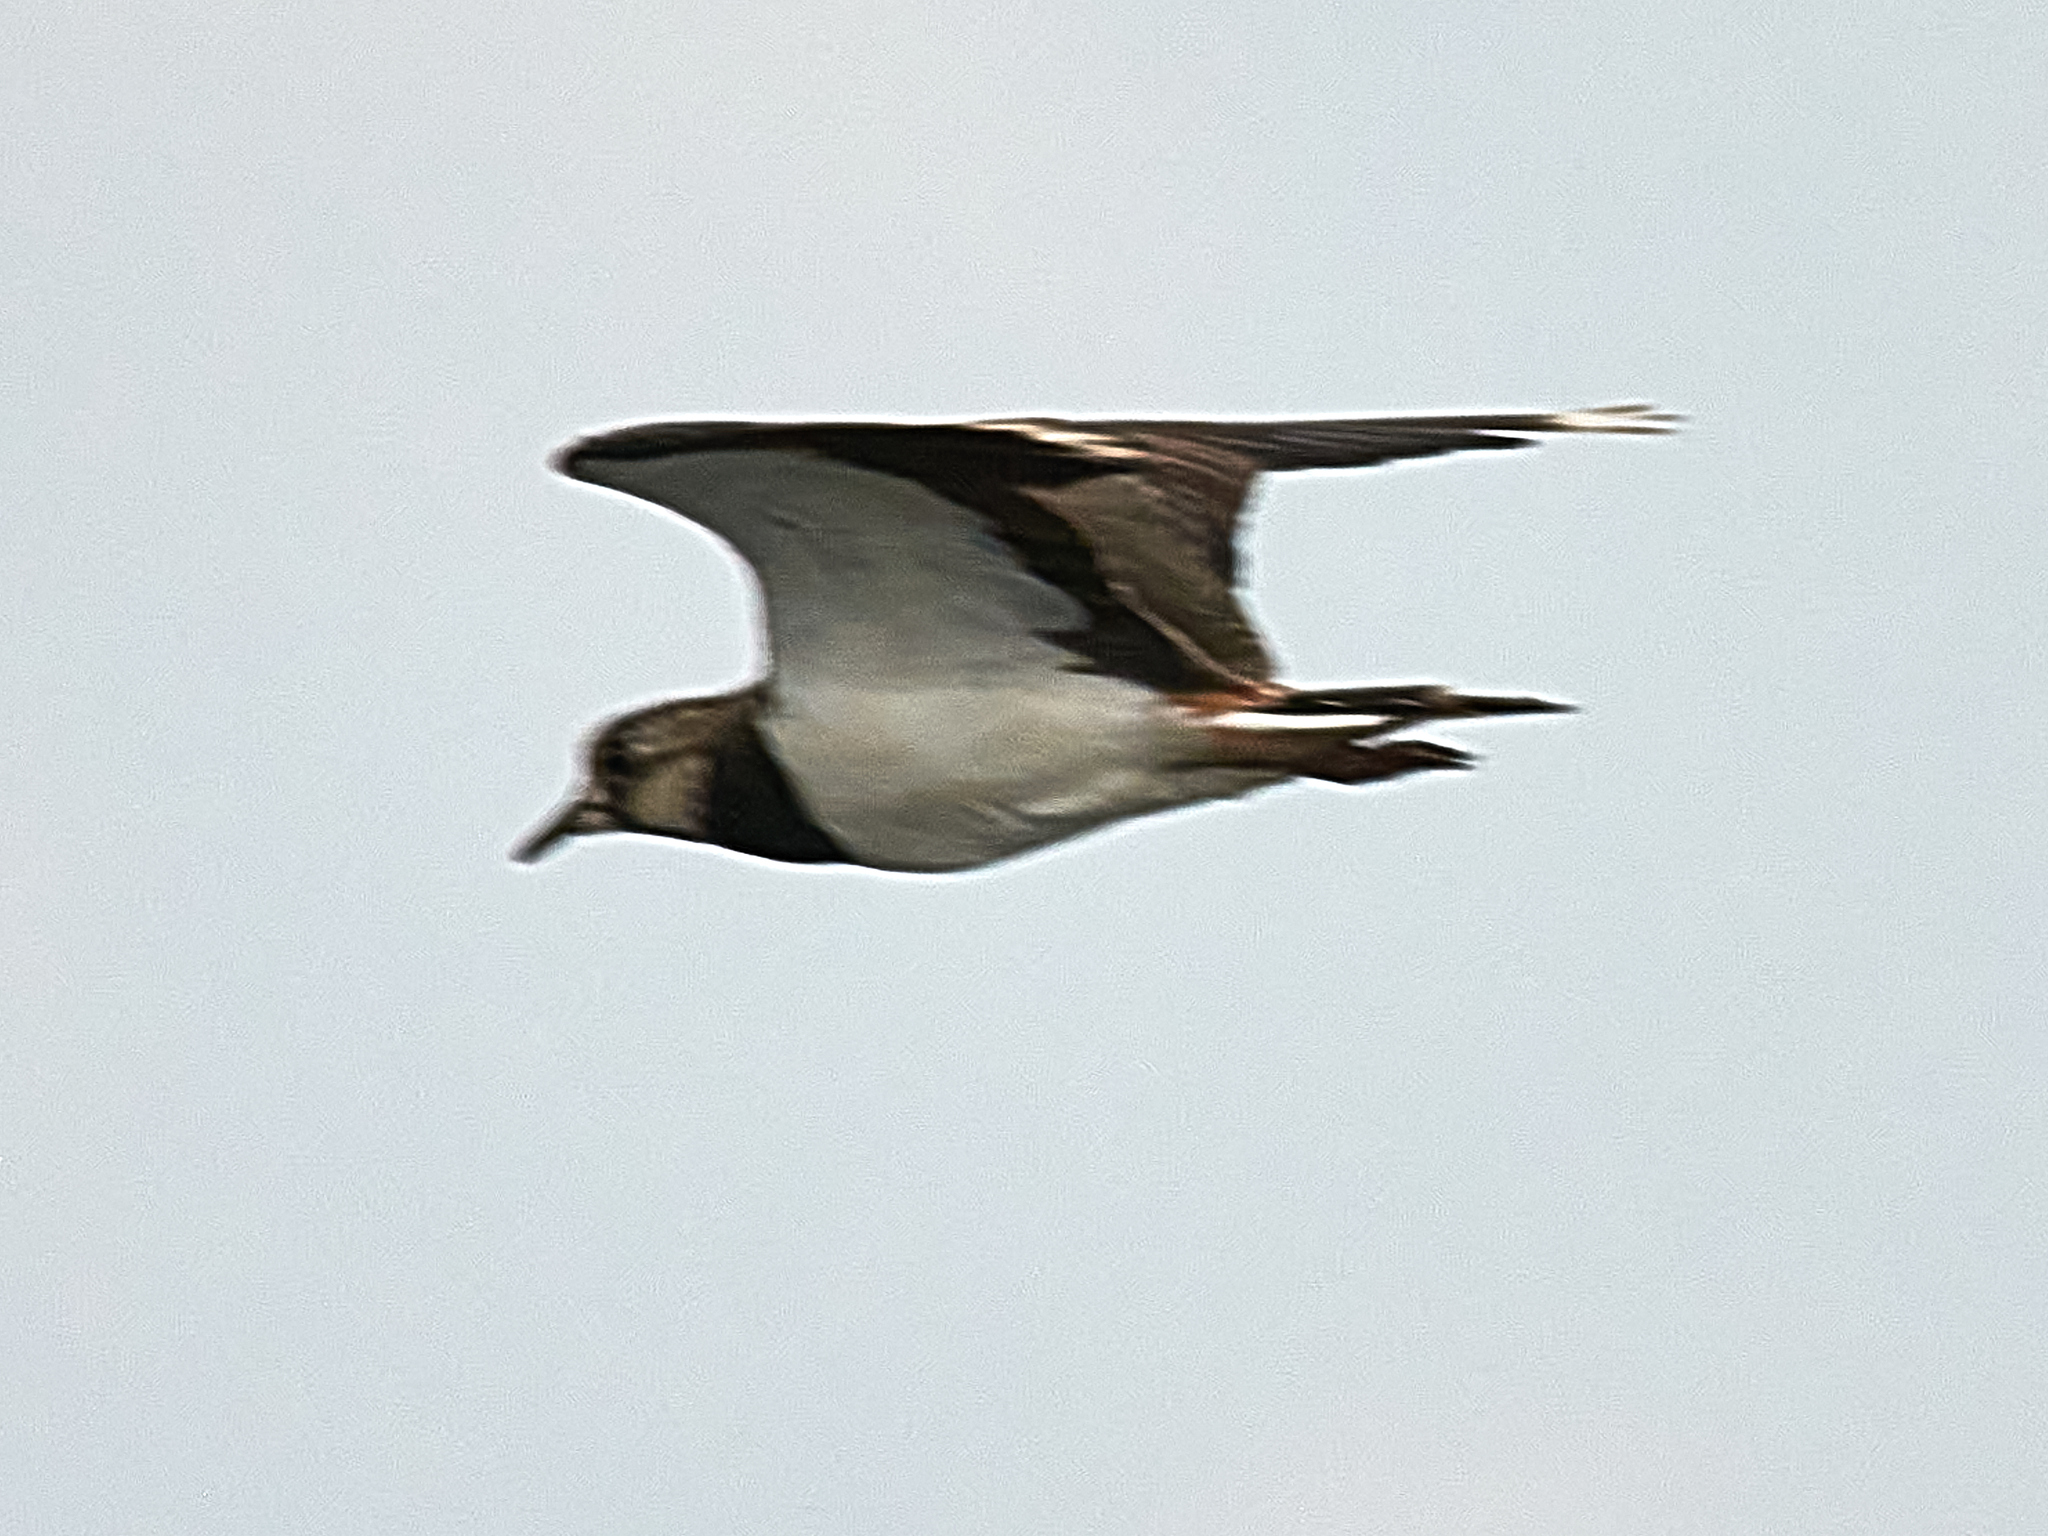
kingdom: Animalia
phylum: Chordata
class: Aves
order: Charadriiformes
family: Charadriidae
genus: Vanellus
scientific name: Vanellus vanellus
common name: Northern lapwing
